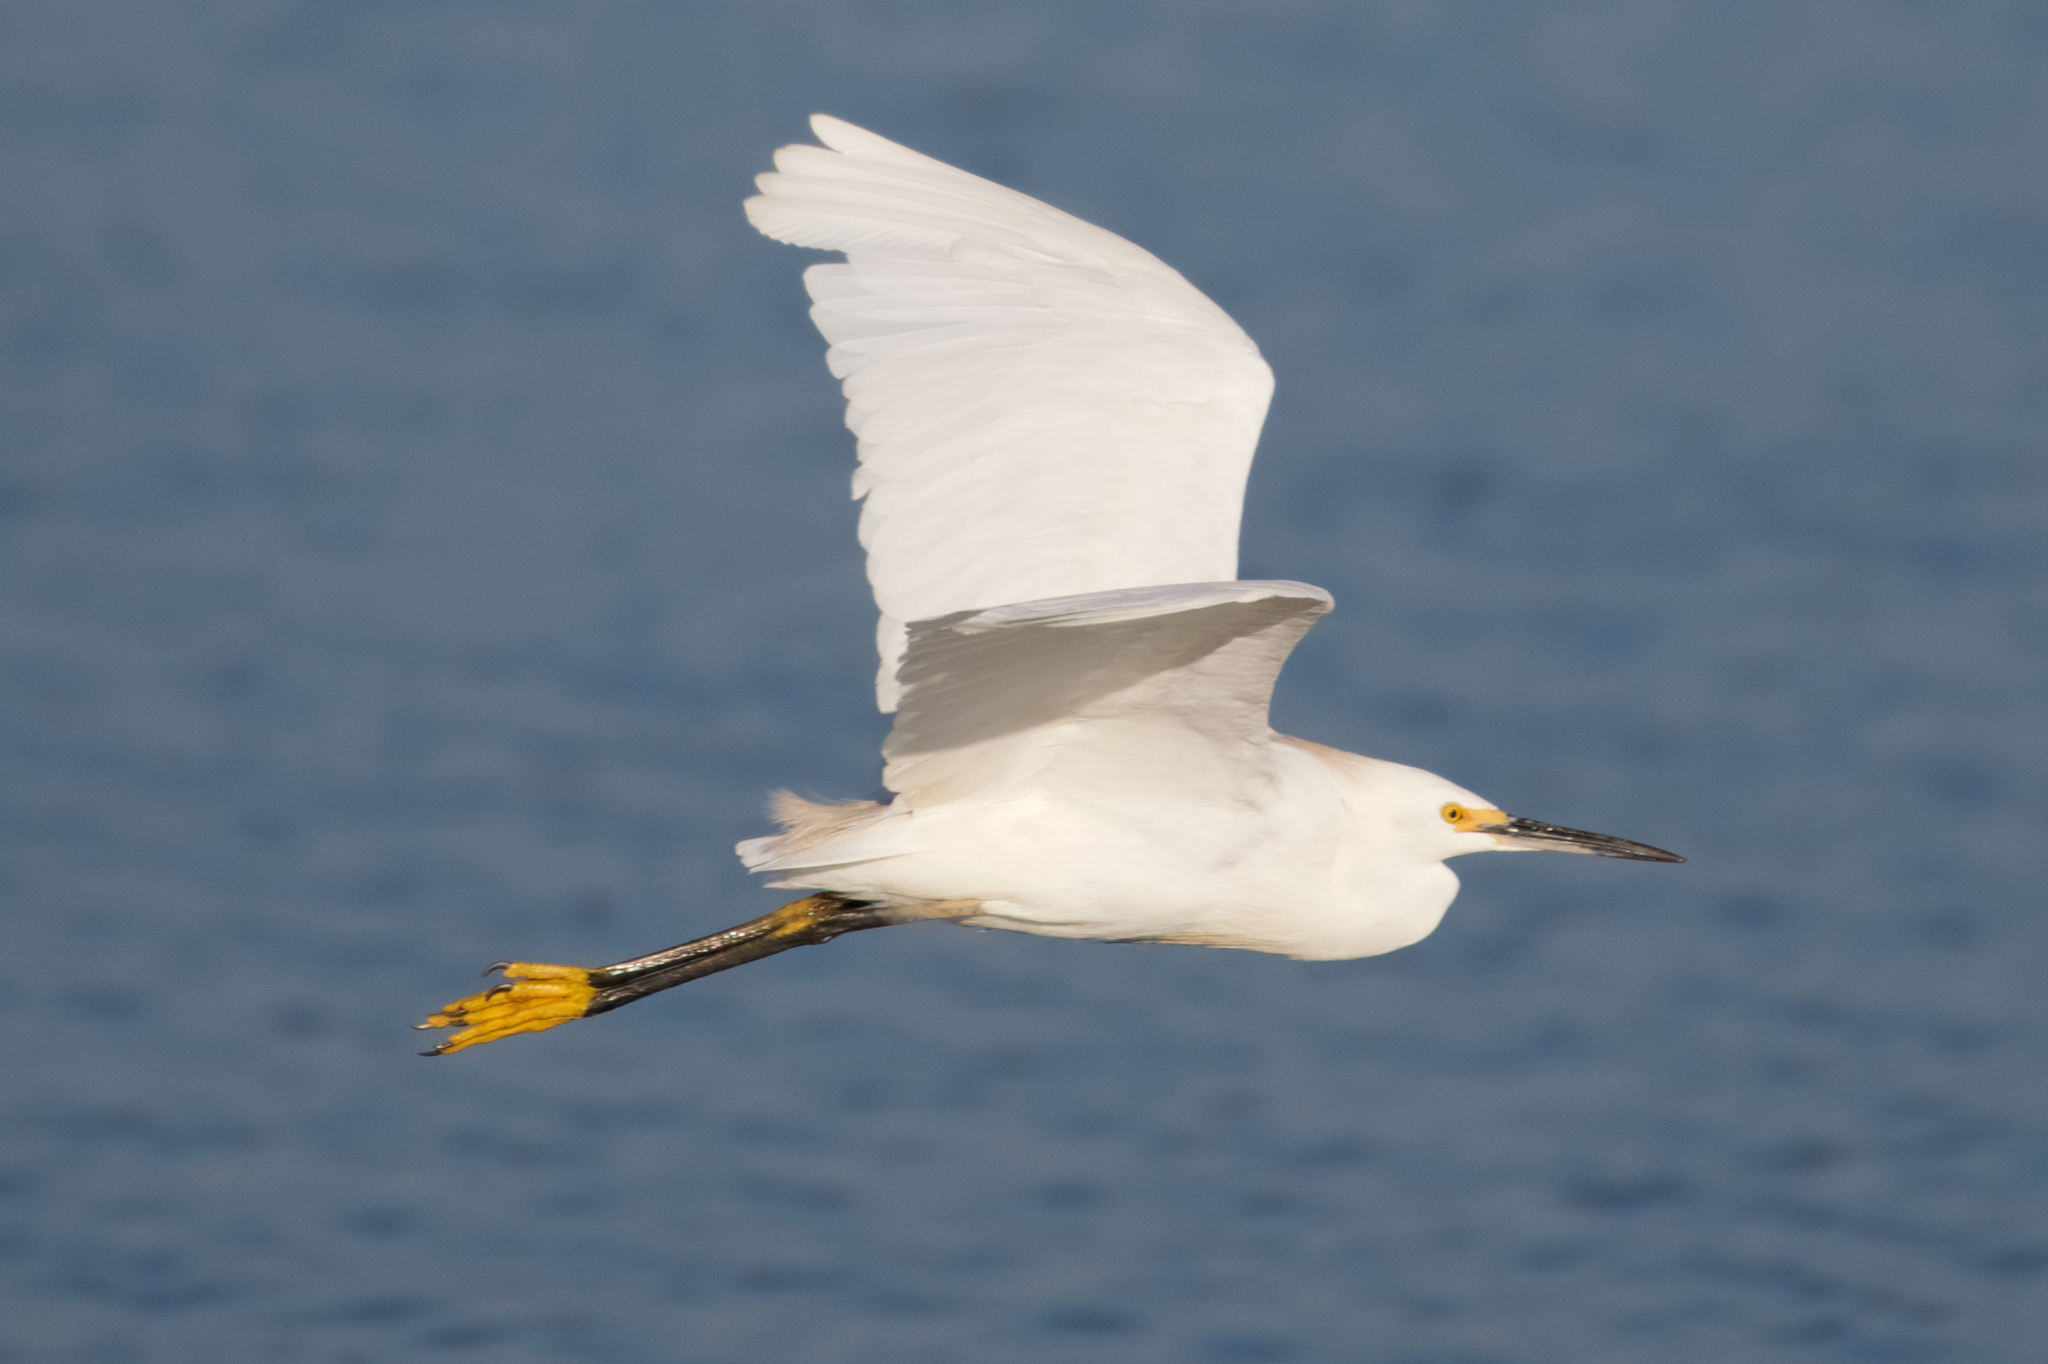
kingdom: Animalia
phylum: Chordata
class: Aves
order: Pelecaniformes
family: Ardeidae
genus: Egretta
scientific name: Egretta thula
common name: Snowy egret
